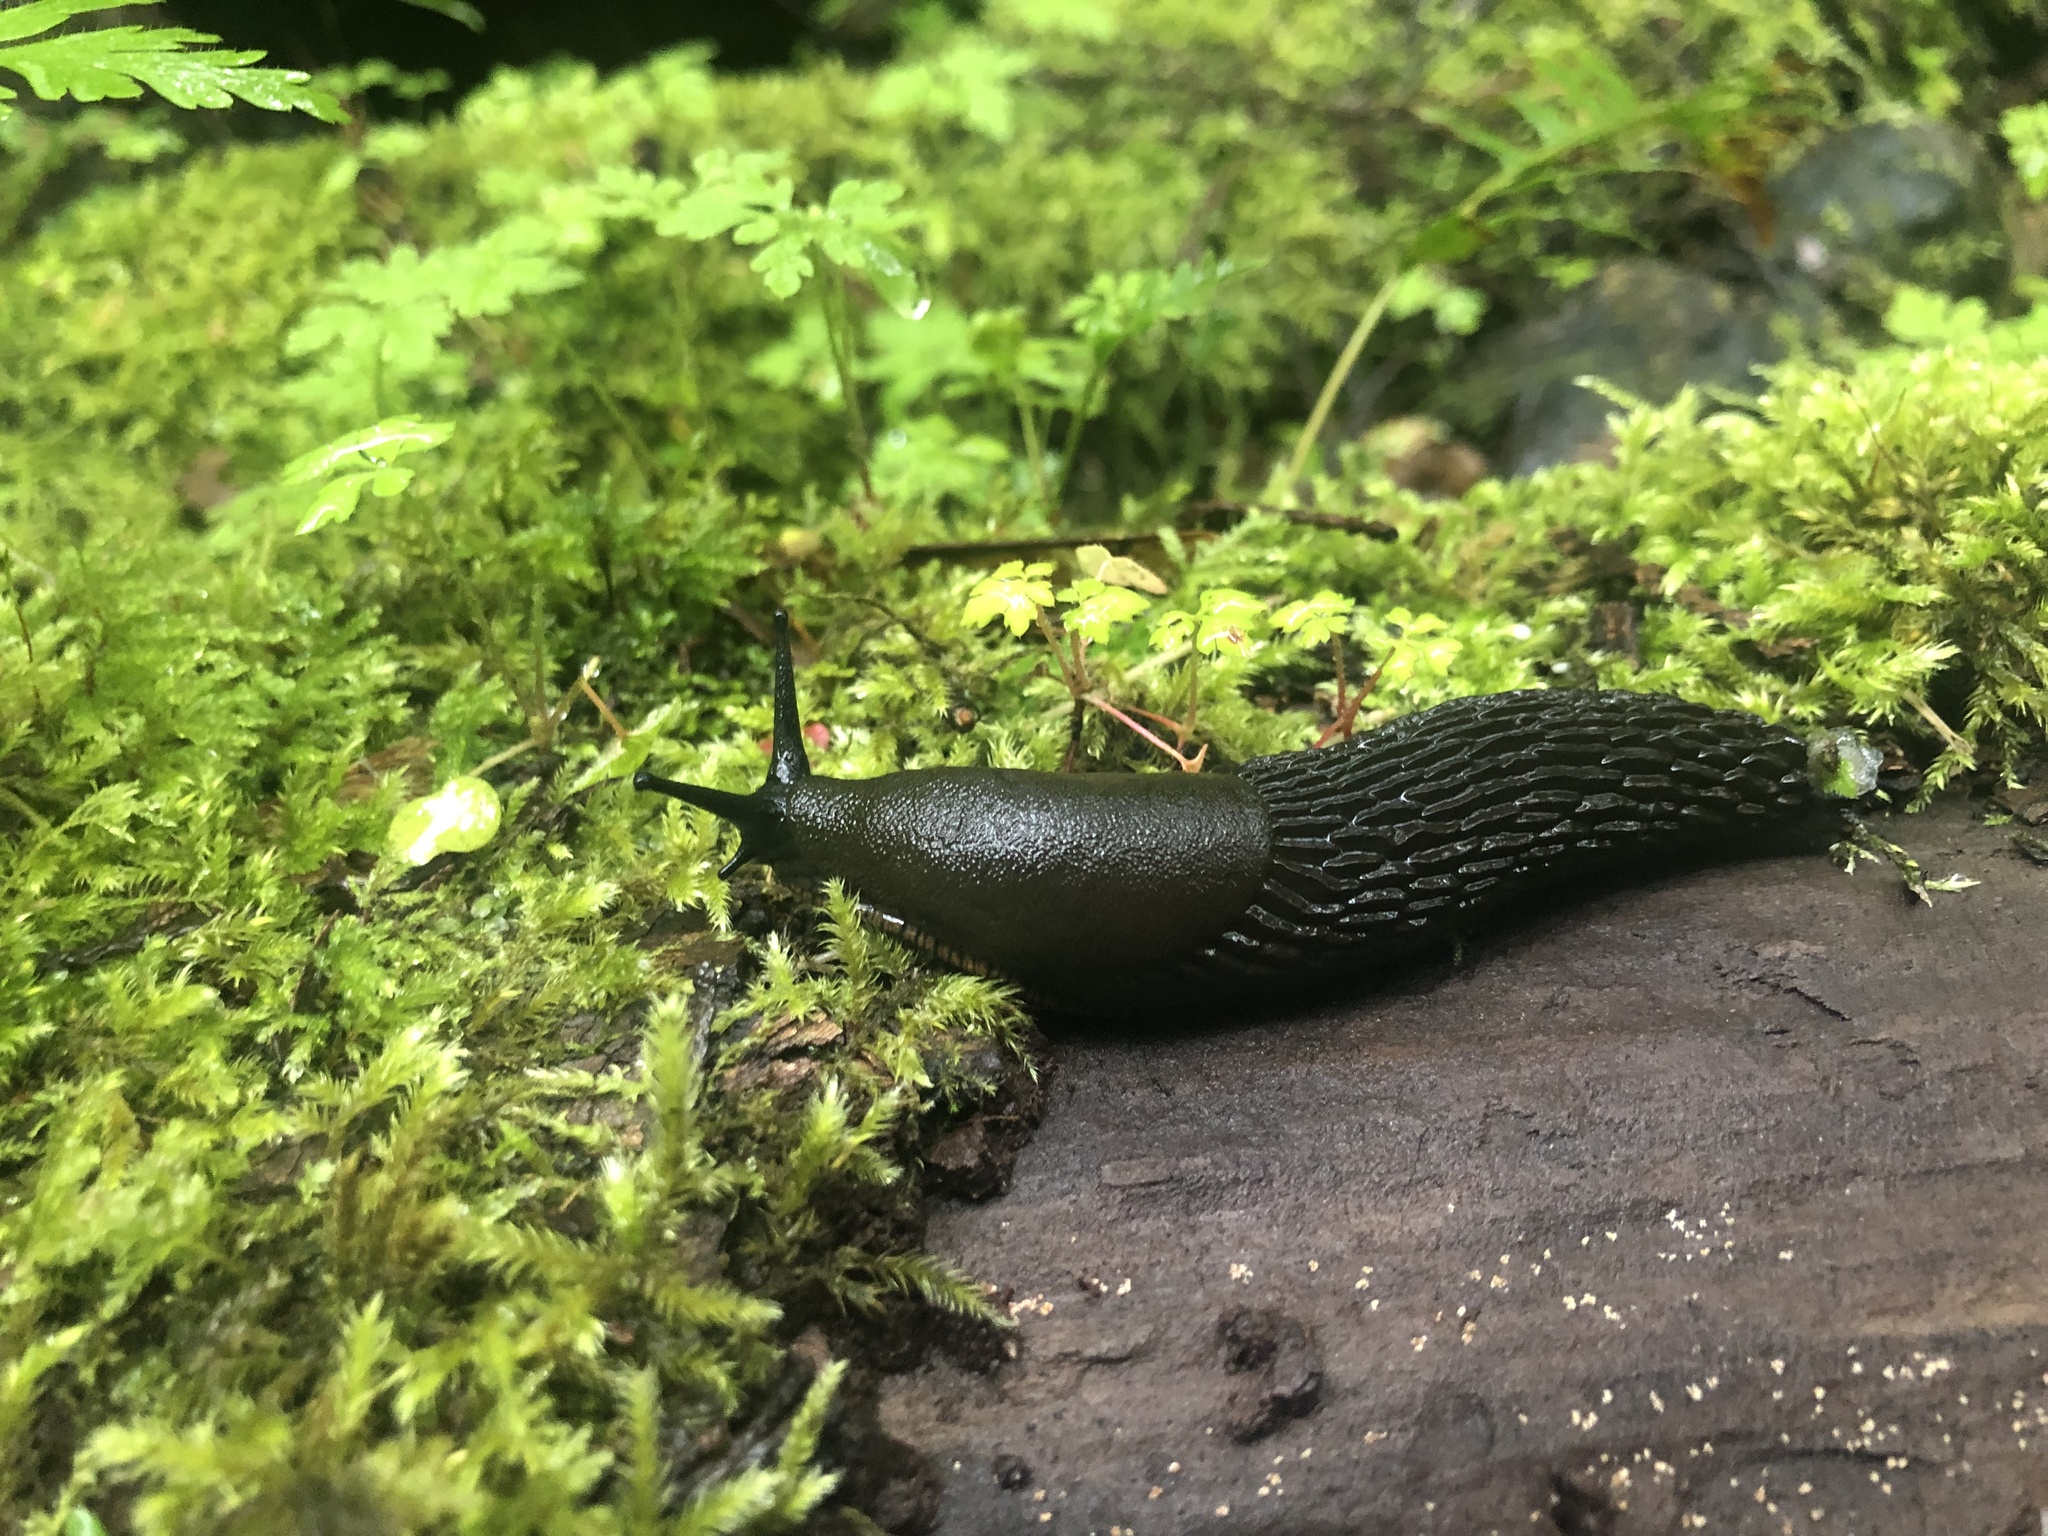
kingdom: Animalia
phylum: Mollusca
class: Gastropoda
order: Stylommatophora
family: Arionidae
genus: Arion
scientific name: Arion
